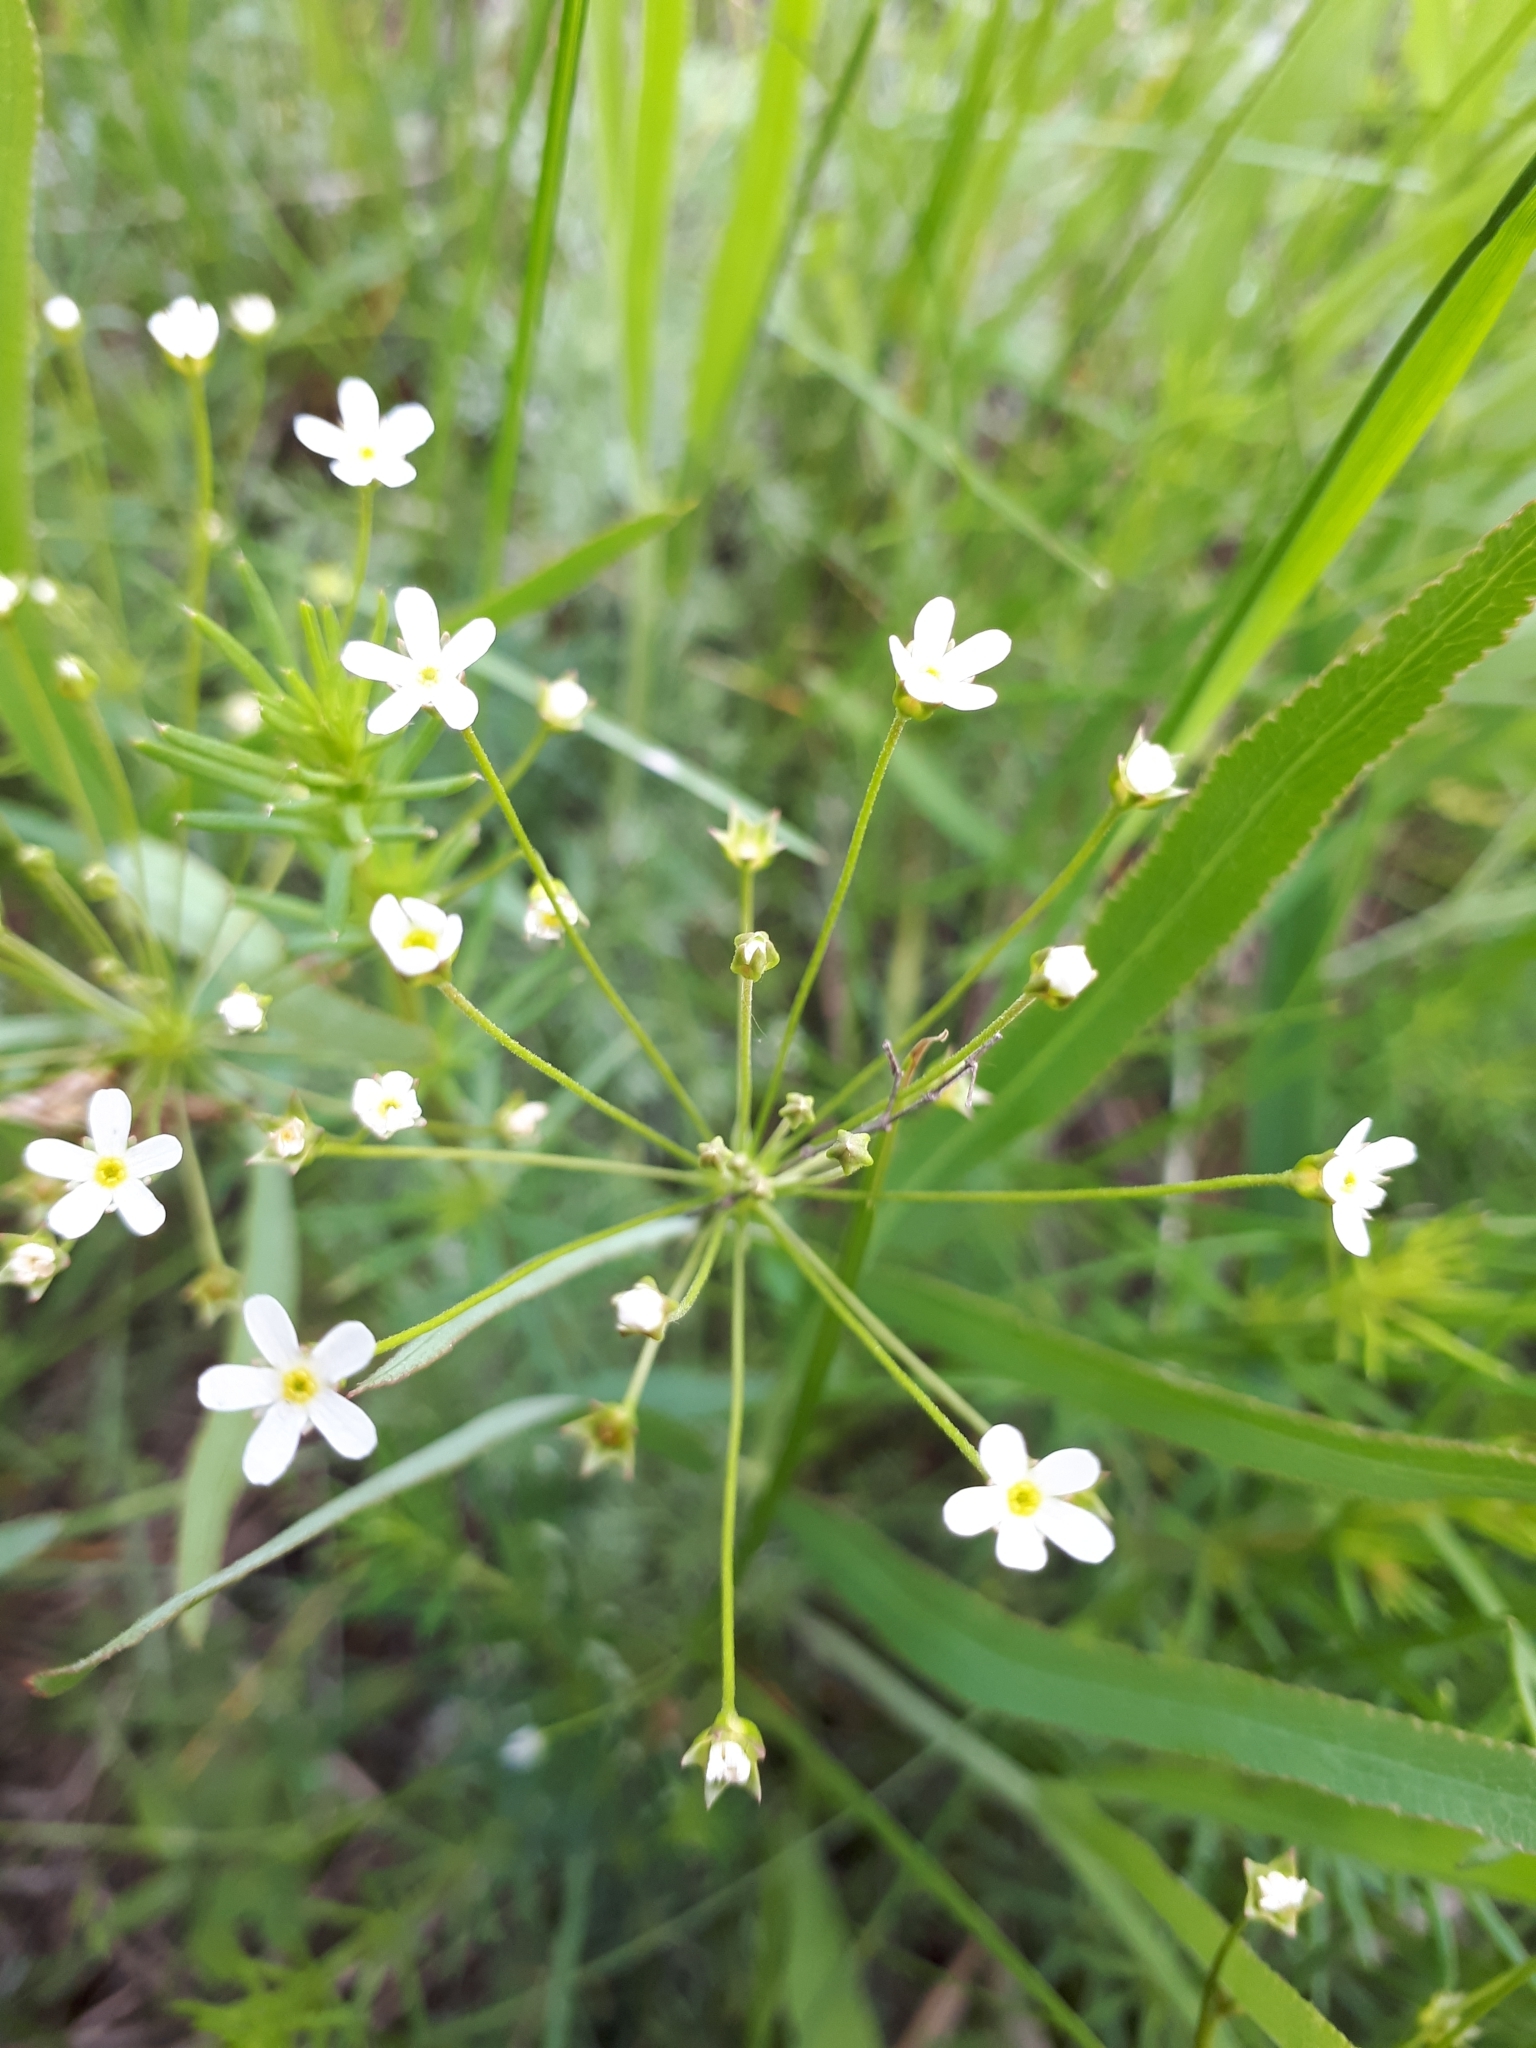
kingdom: Plantae
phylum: Tracheophyta
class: Magnoliopsida
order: Ericales
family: Primulaceae
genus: Androsace
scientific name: Androsace septentrionalis
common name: Hairy northern fairy-candelabra
